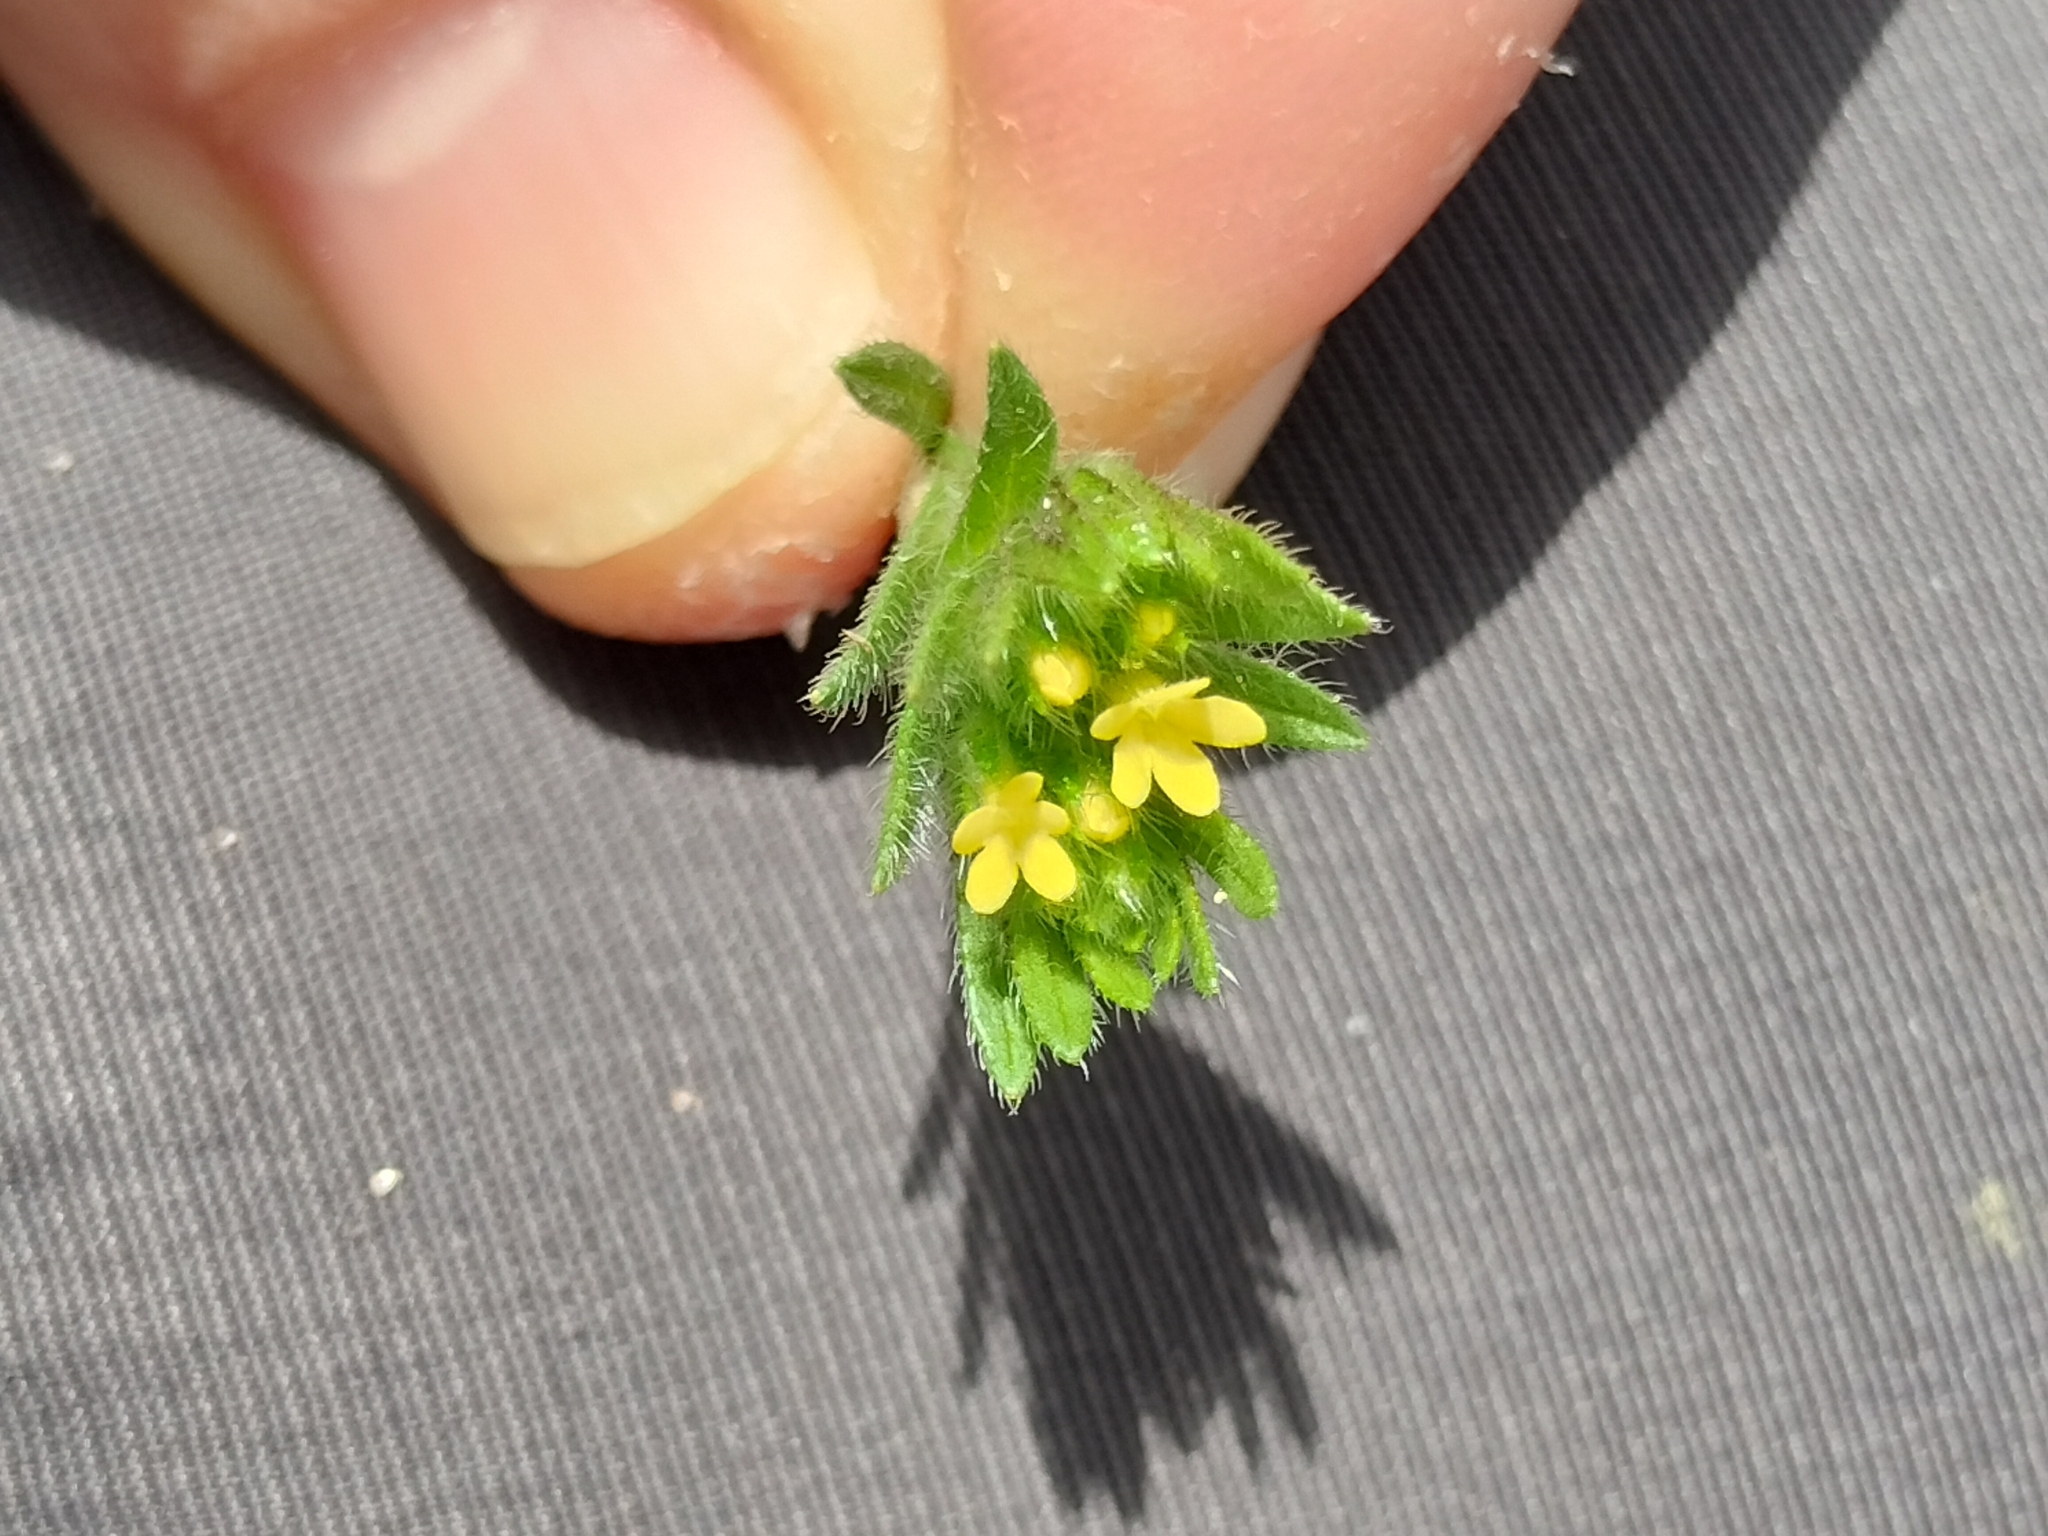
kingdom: Plantae
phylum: Tracheophyta
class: Magnoliopsida
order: Boraginales
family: Boraginaceae
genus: Neatostema
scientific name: Neatostema apulum
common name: Hairy sheepweed
